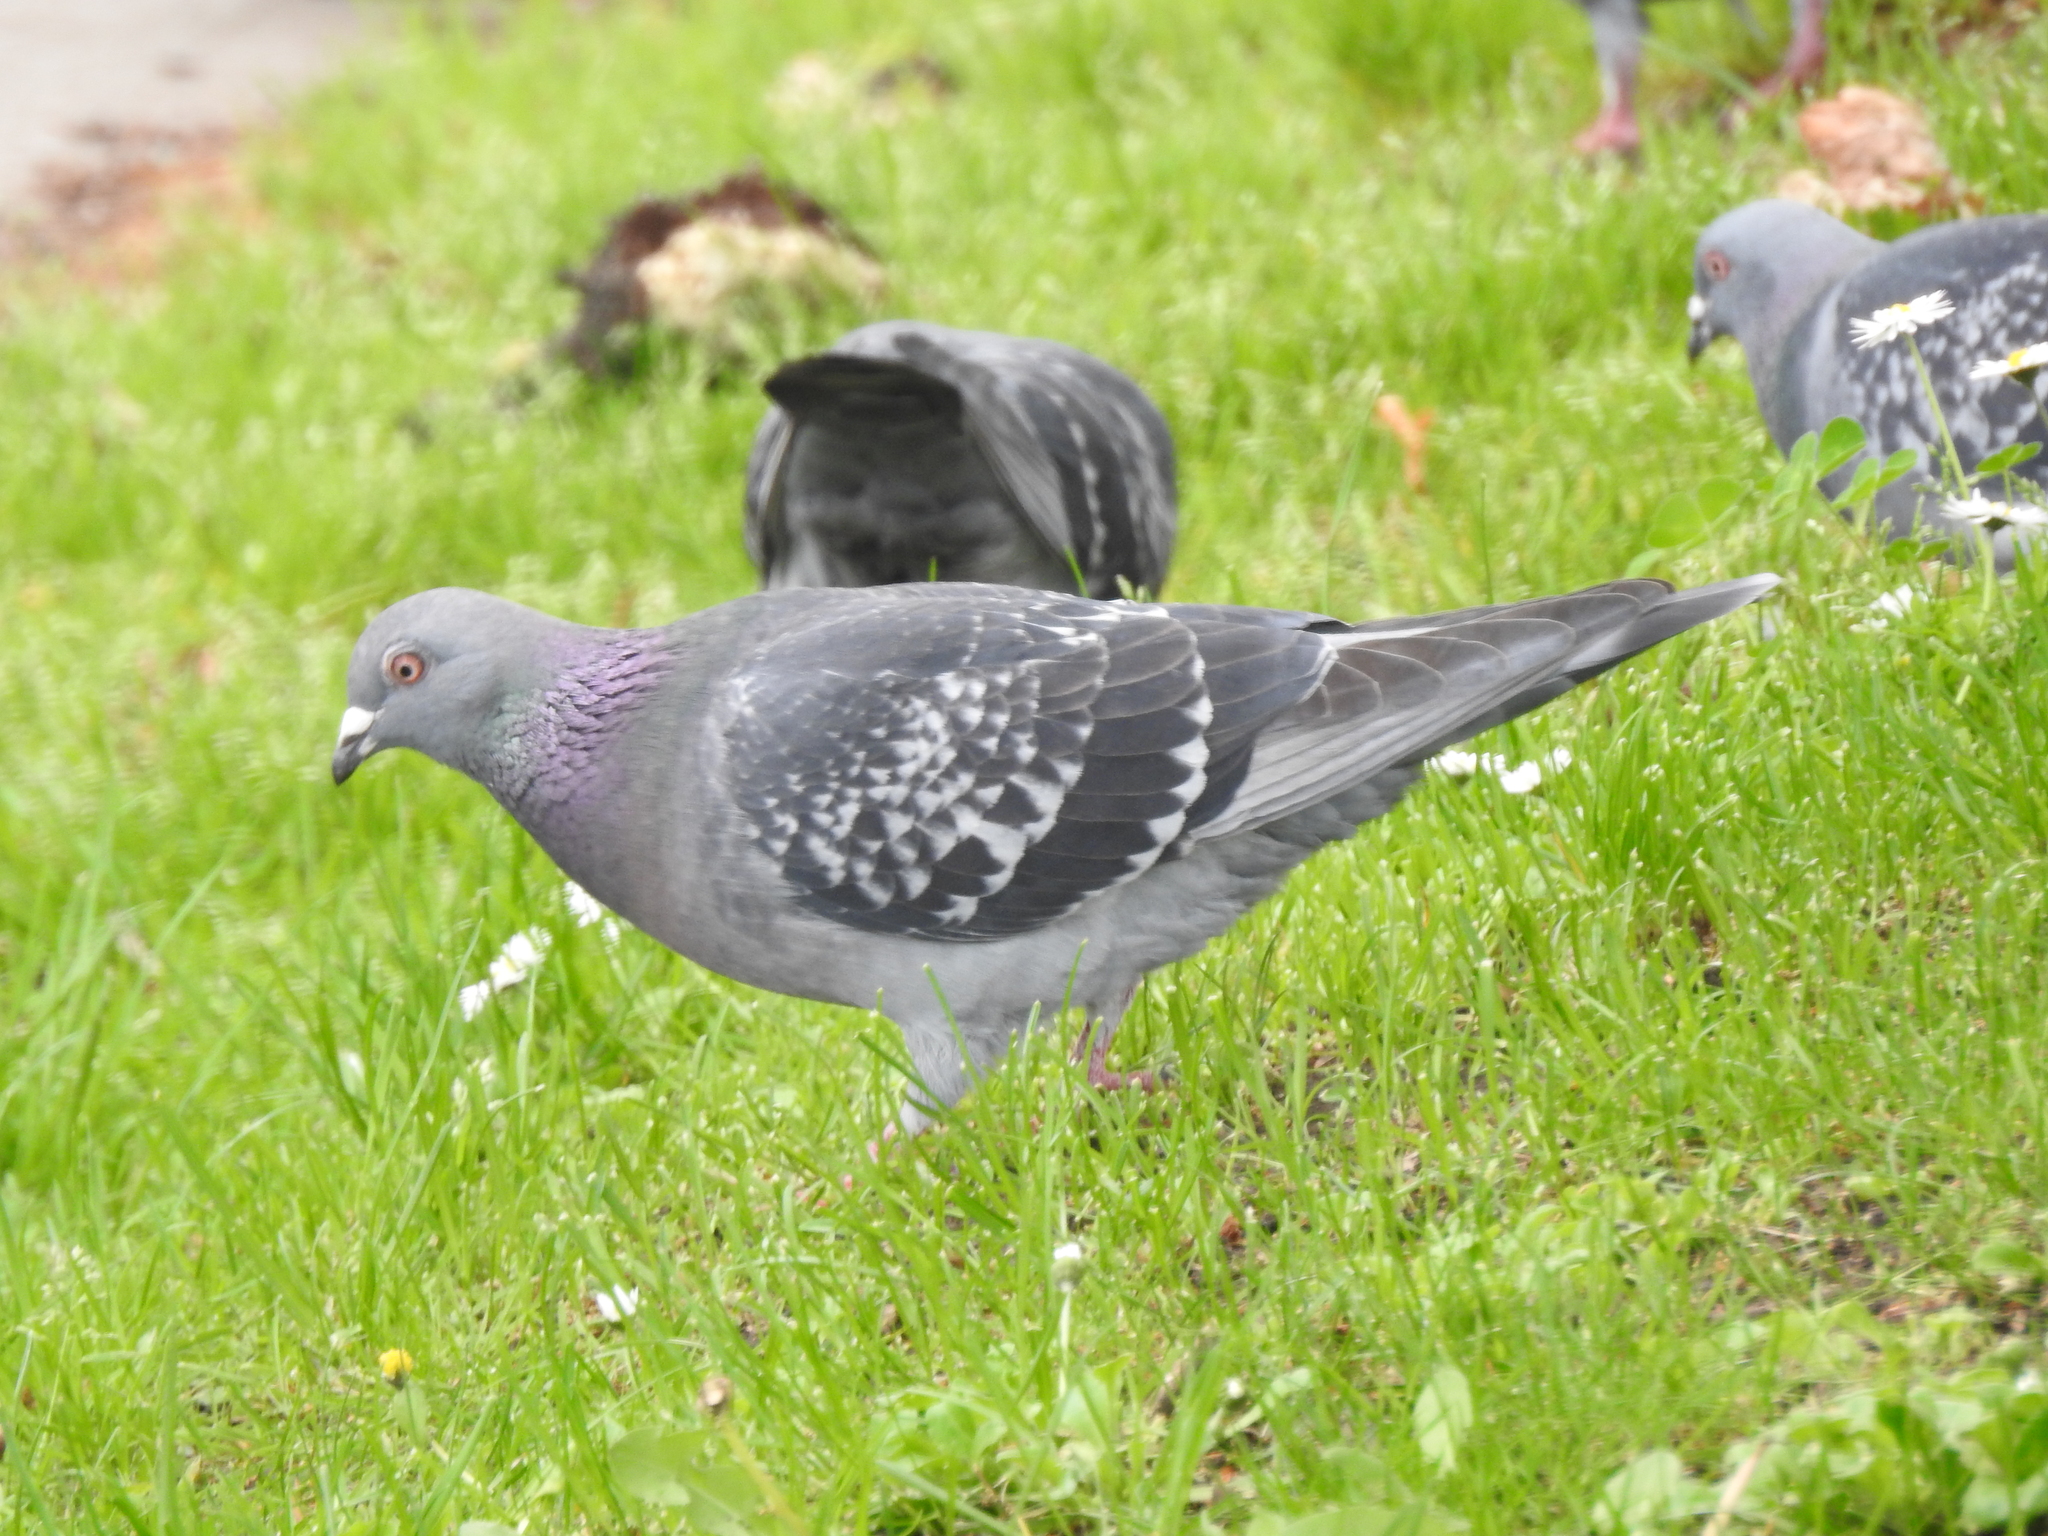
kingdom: Animalia
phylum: Chordata
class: Aves
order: Columbiformes
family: Columbidae
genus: Columba
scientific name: Columba livia
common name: Rock pigeon
